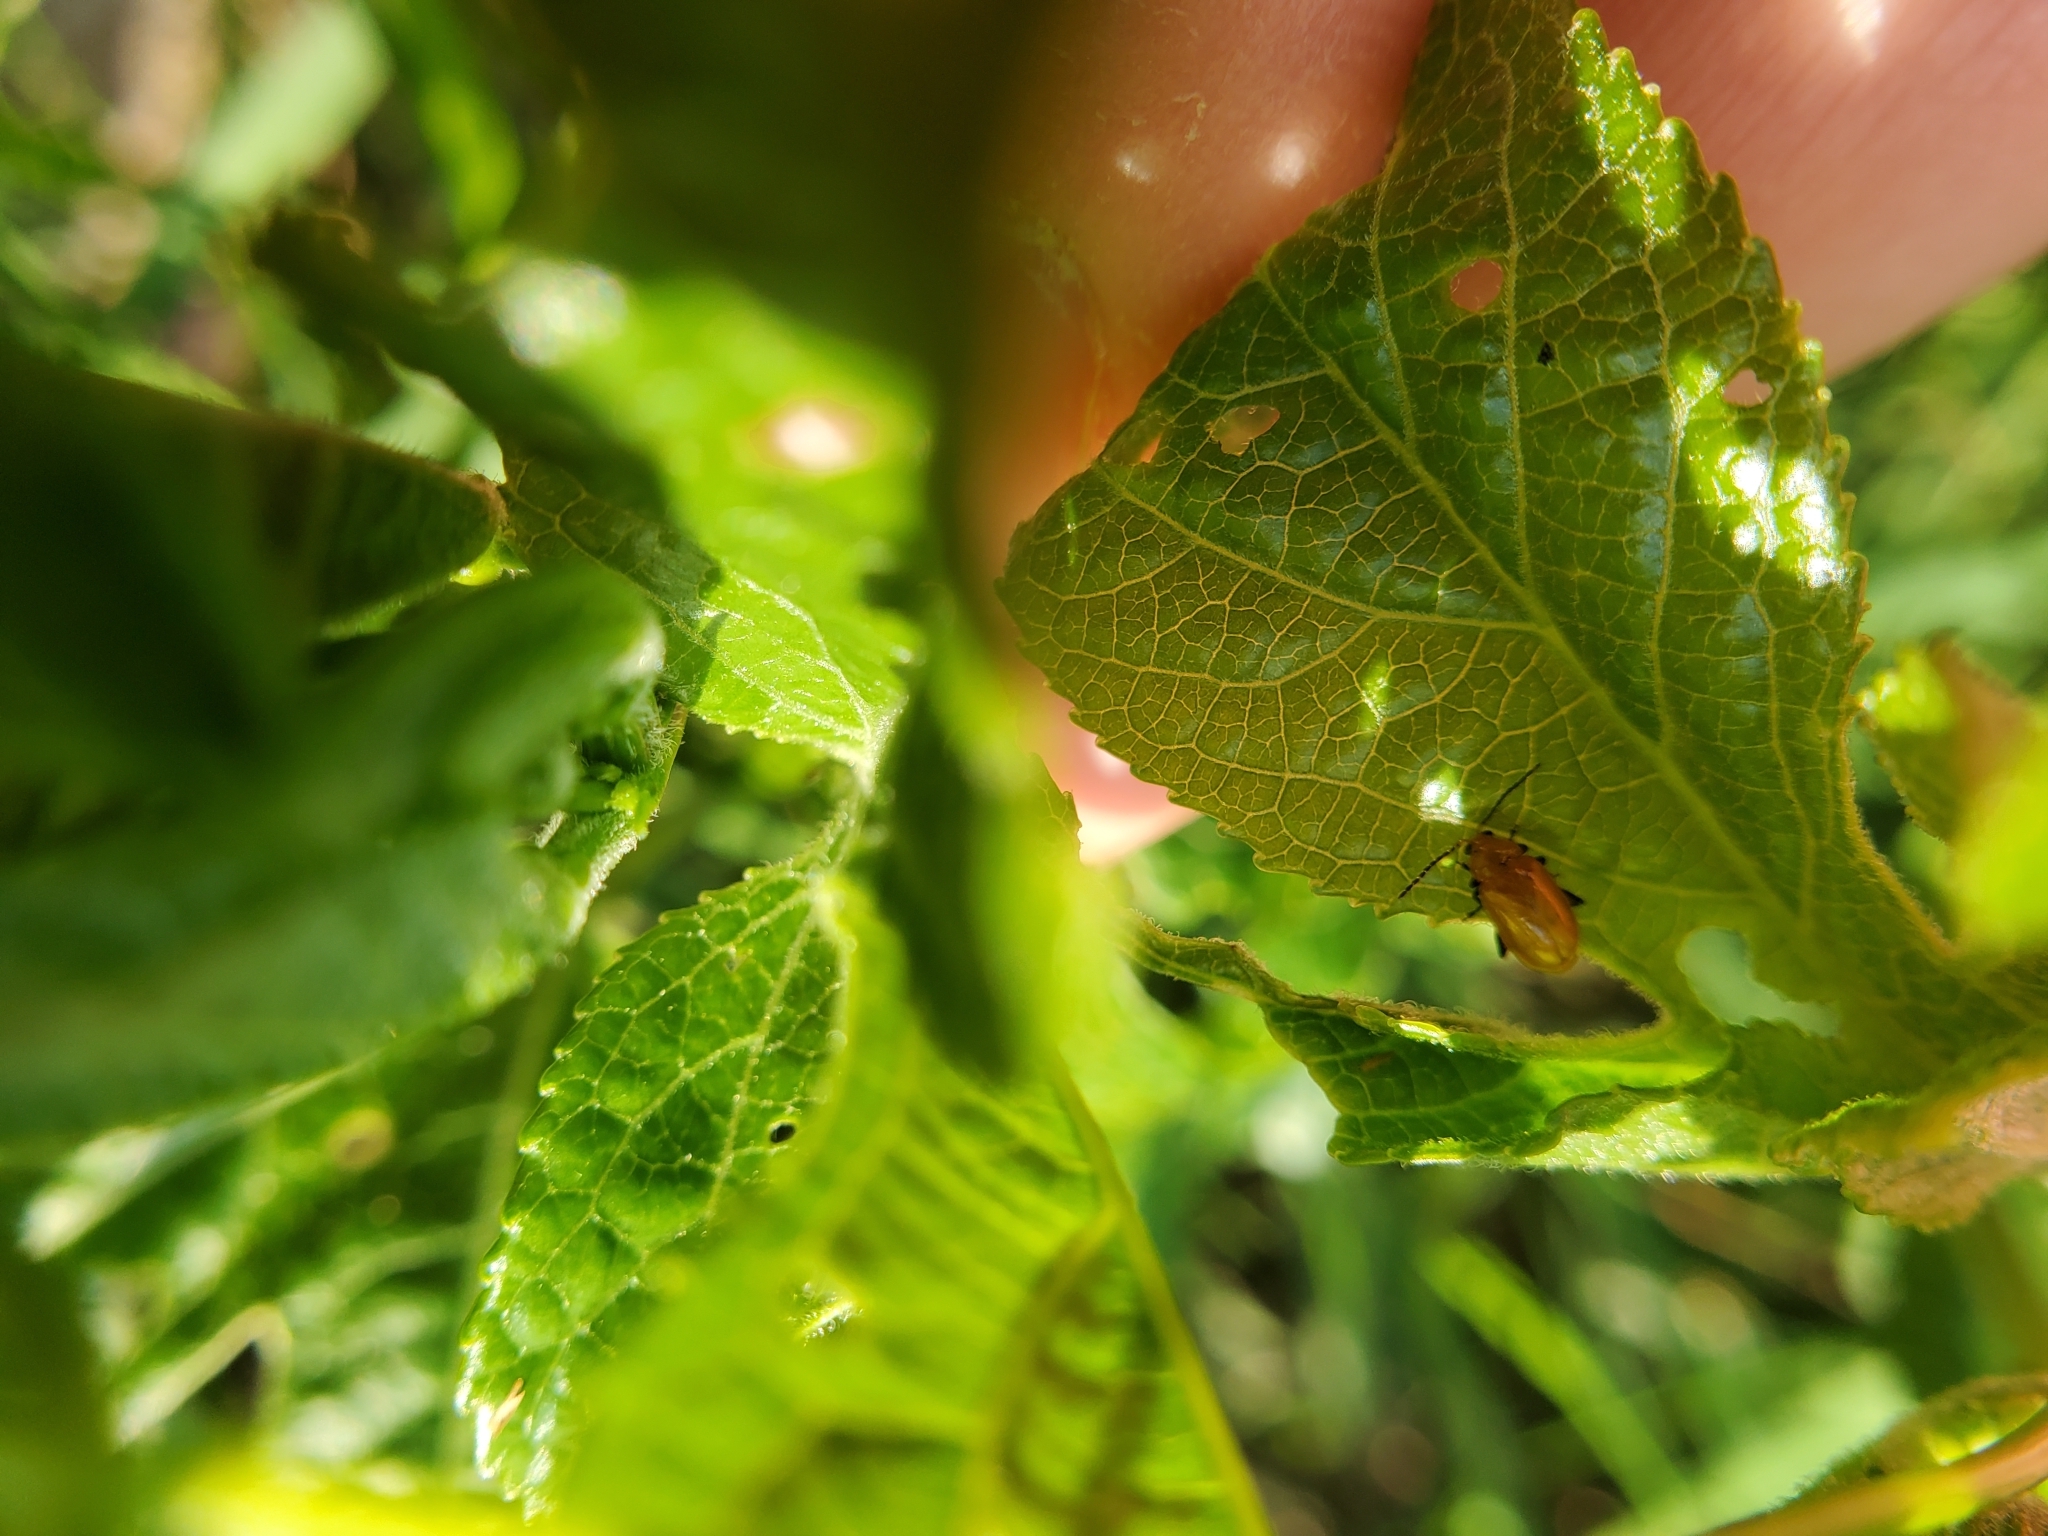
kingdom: Animalia
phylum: Arthropoda
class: Insecta
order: Coleoptera
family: Chrysomelidae
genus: Parchicola
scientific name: Parchicola tibialis
